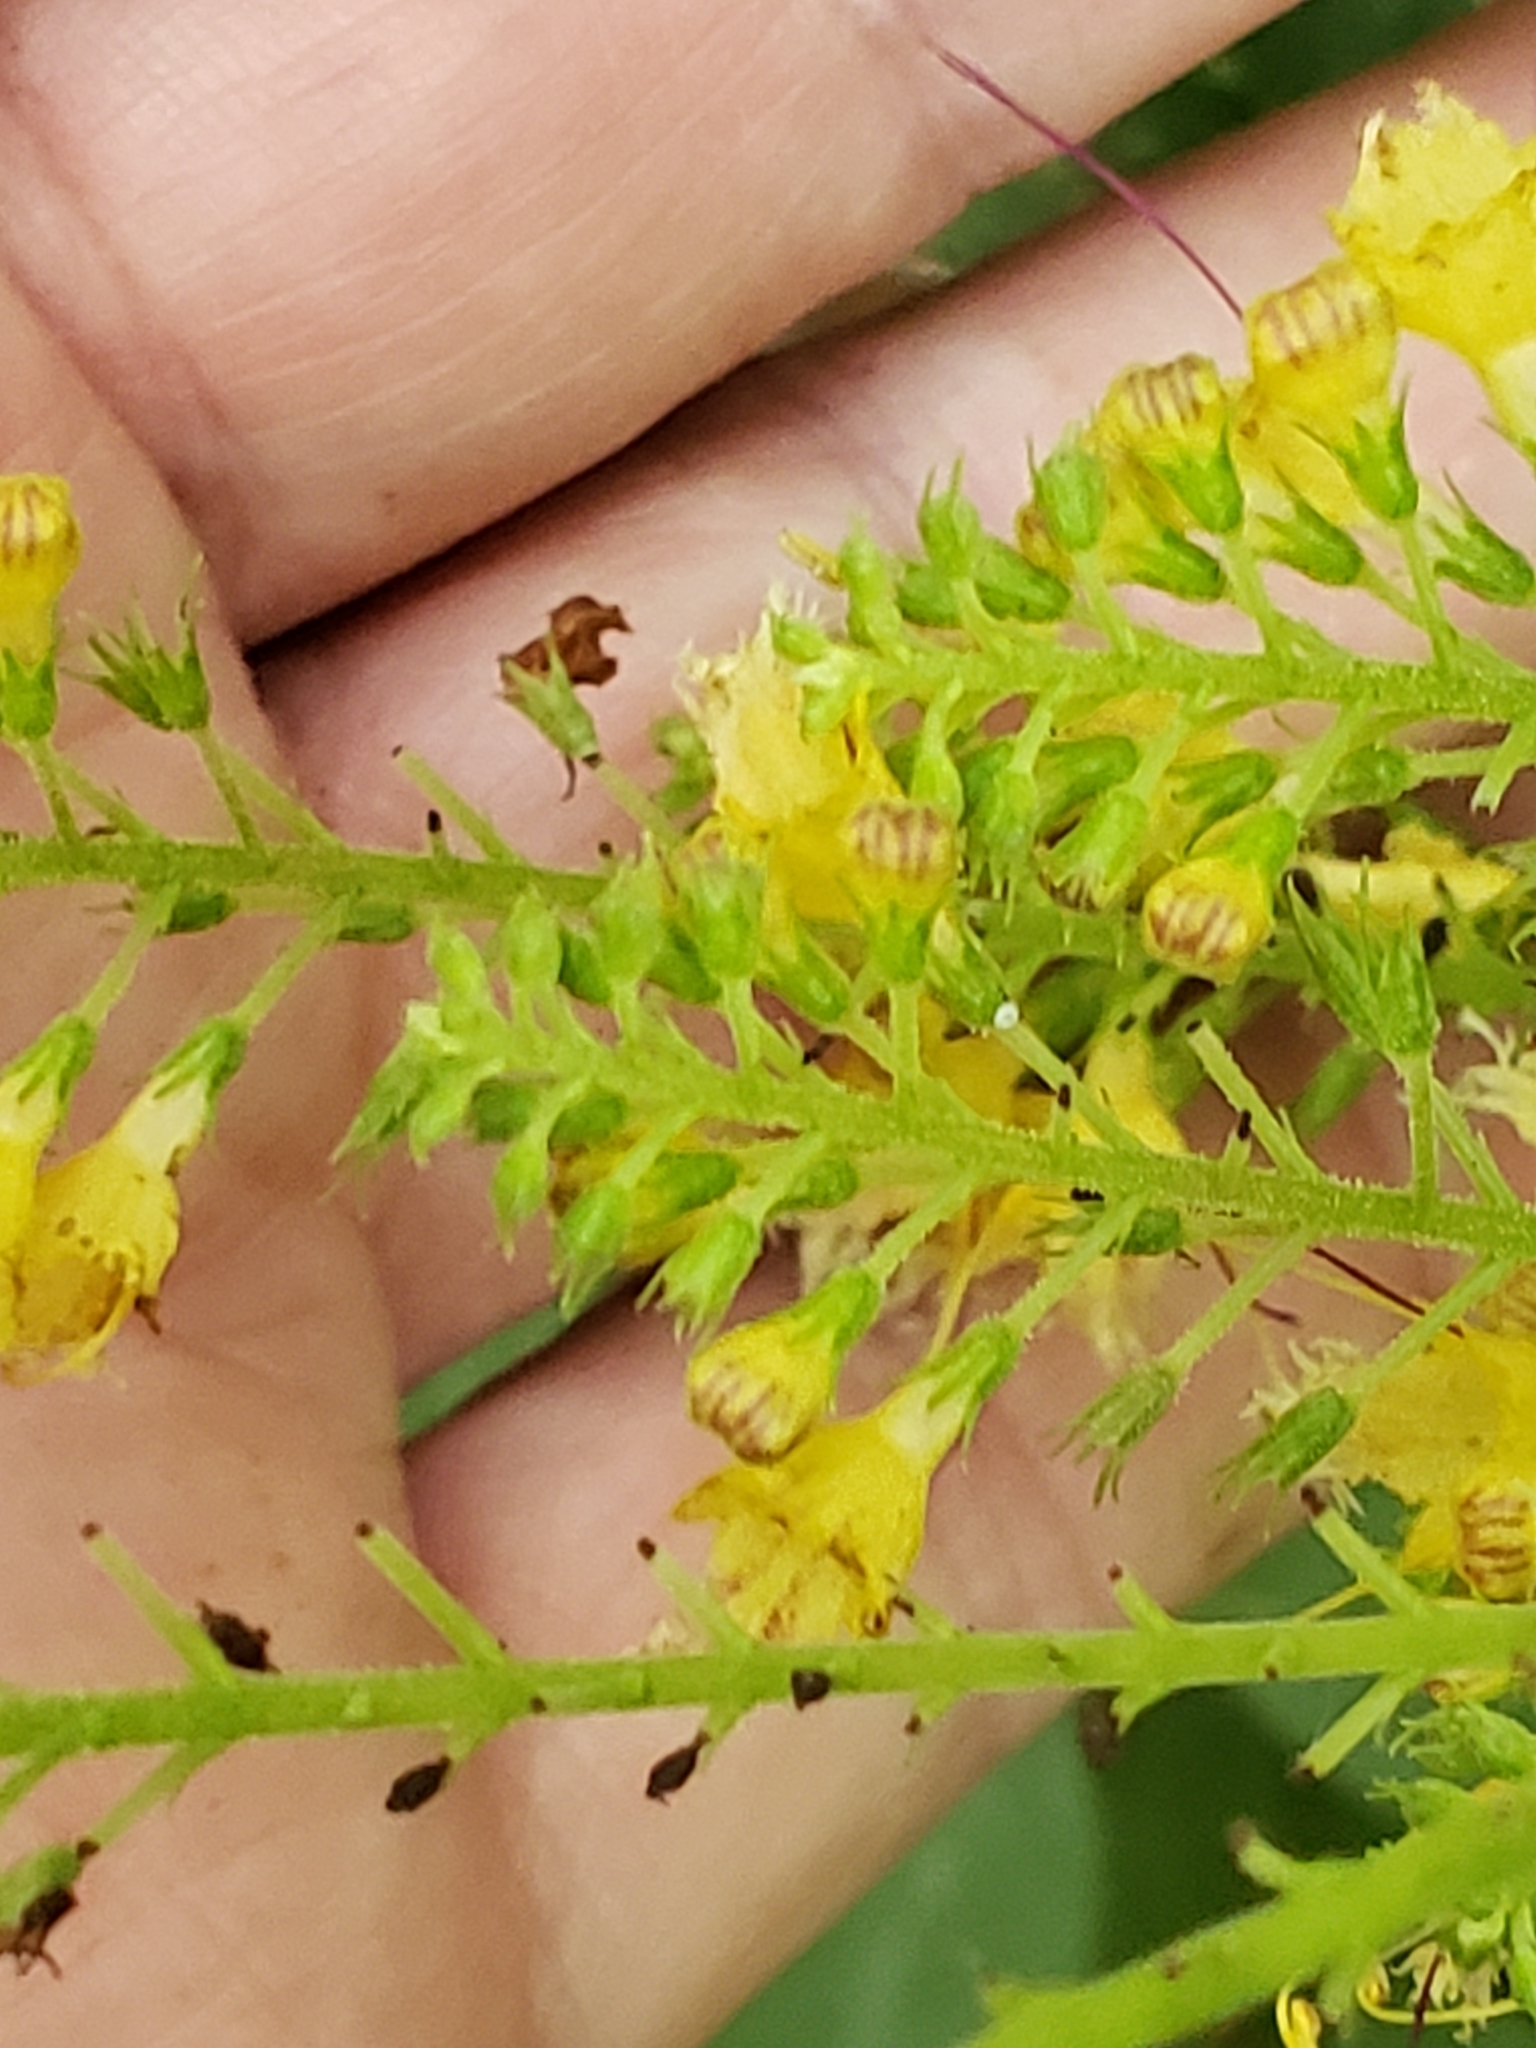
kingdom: Plantae
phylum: Tracheophyta
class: Magnoliopsida
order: Lamiales
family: Lamiaceae
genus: Collinsonia
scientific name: Collinsonia canadensis
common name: Northern horsebalm
